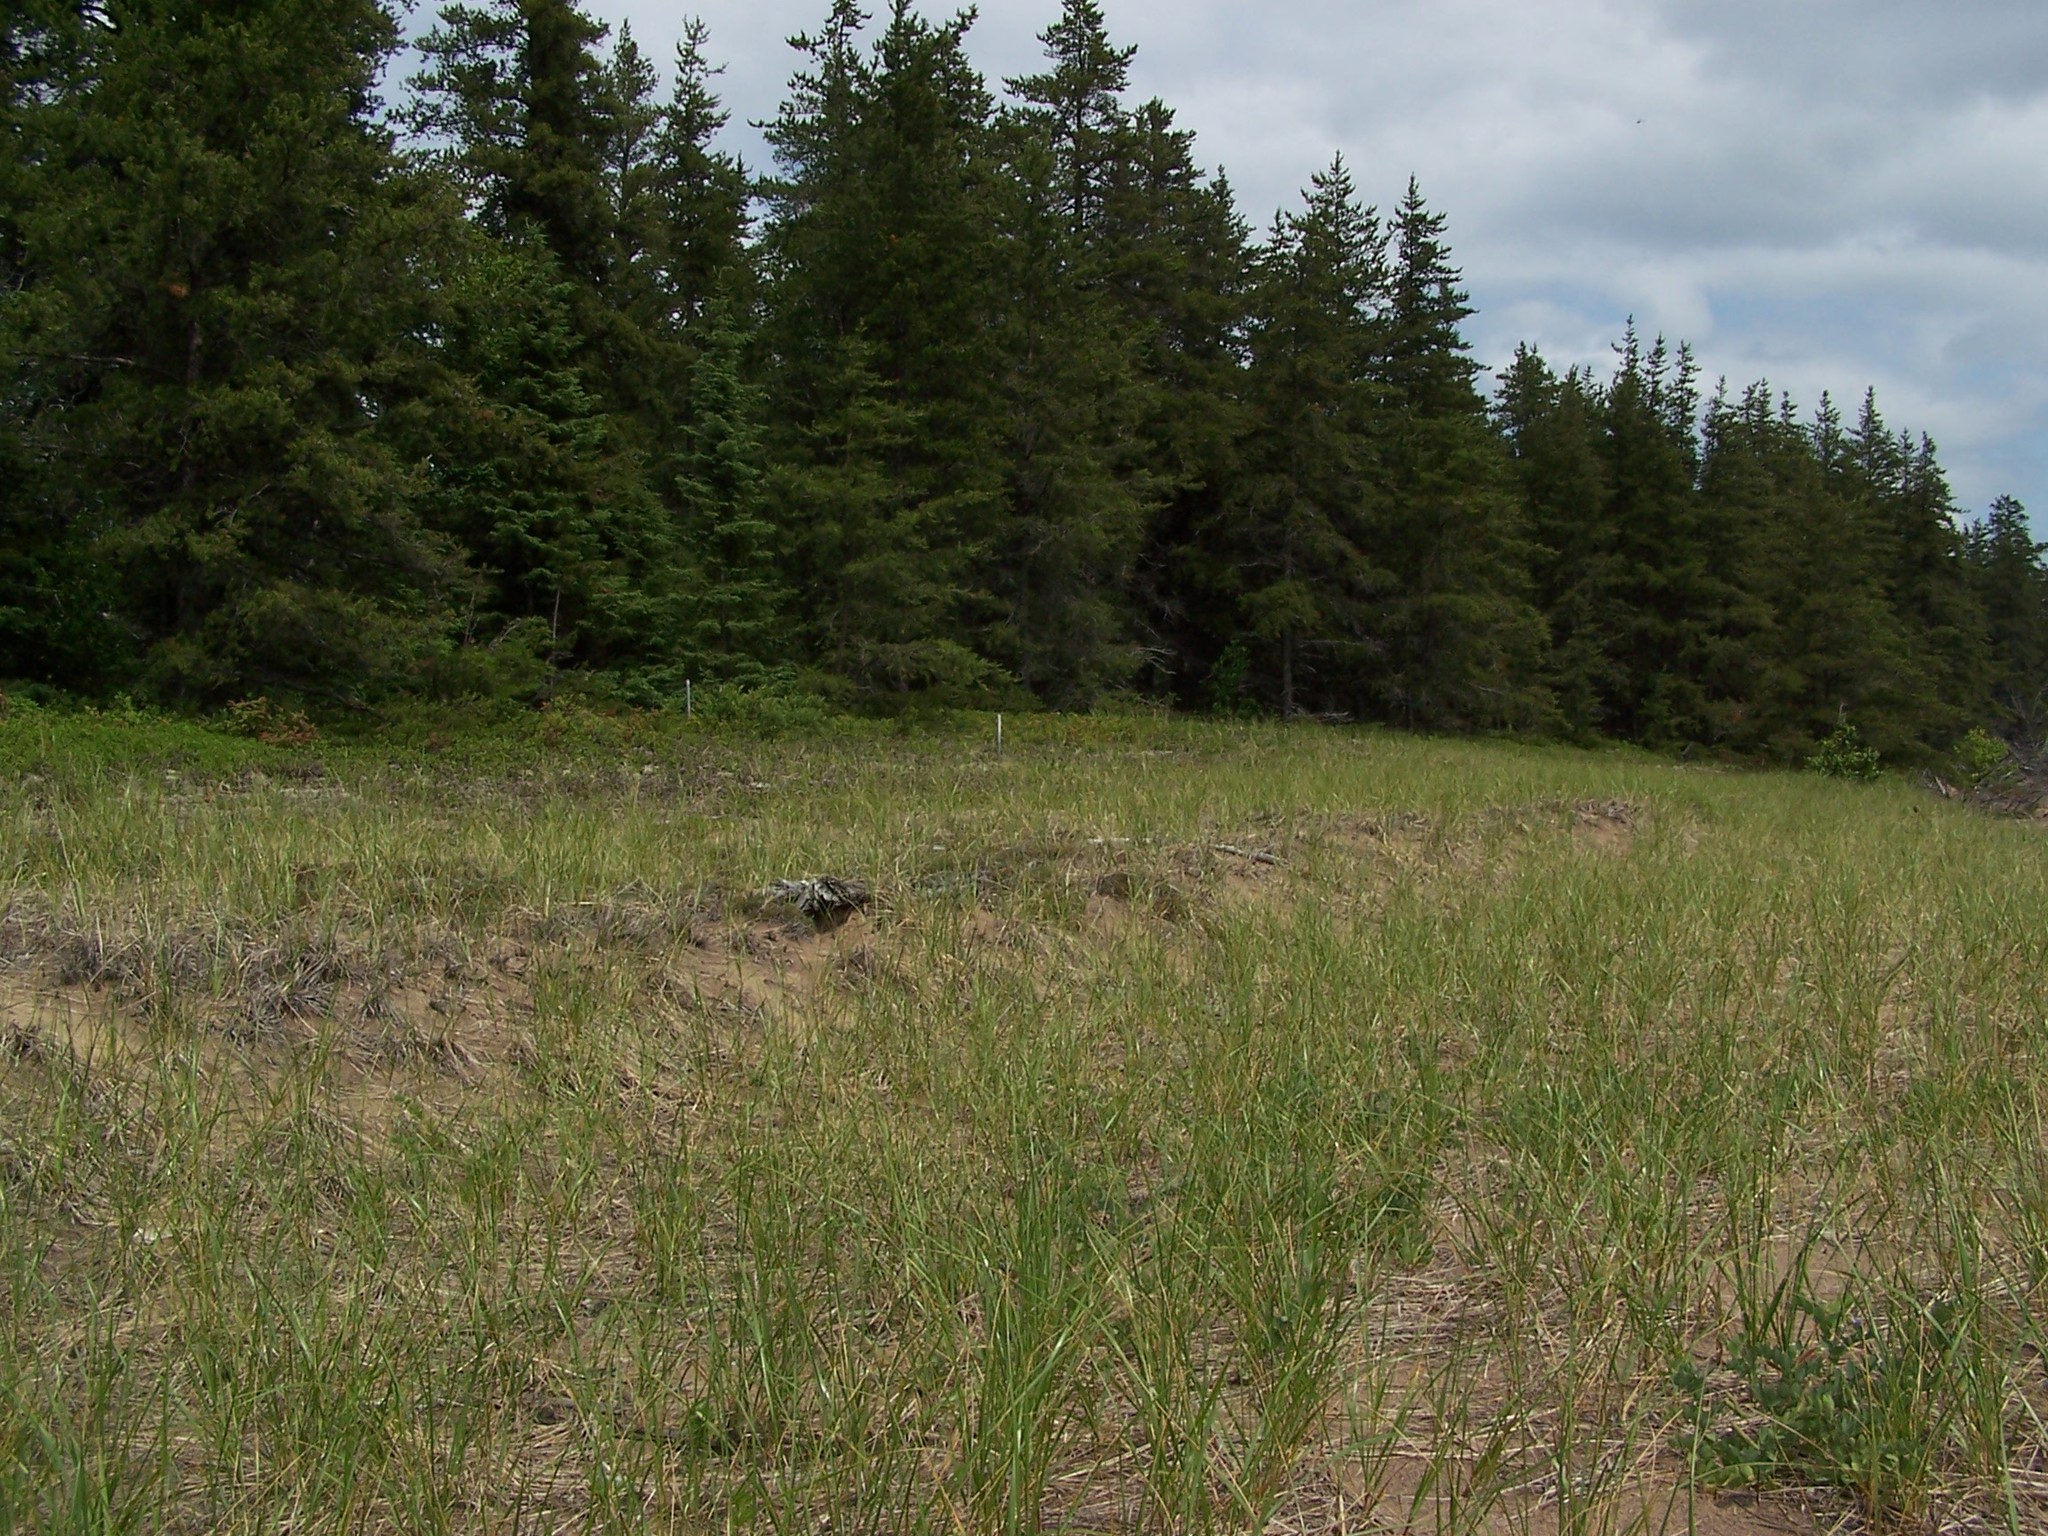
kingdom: Plantae
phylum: Tracheophyta
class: Liliopsida
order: Poales
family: Poaceae
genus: Calamagrostis
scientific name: Calamagrostis breviligulata
